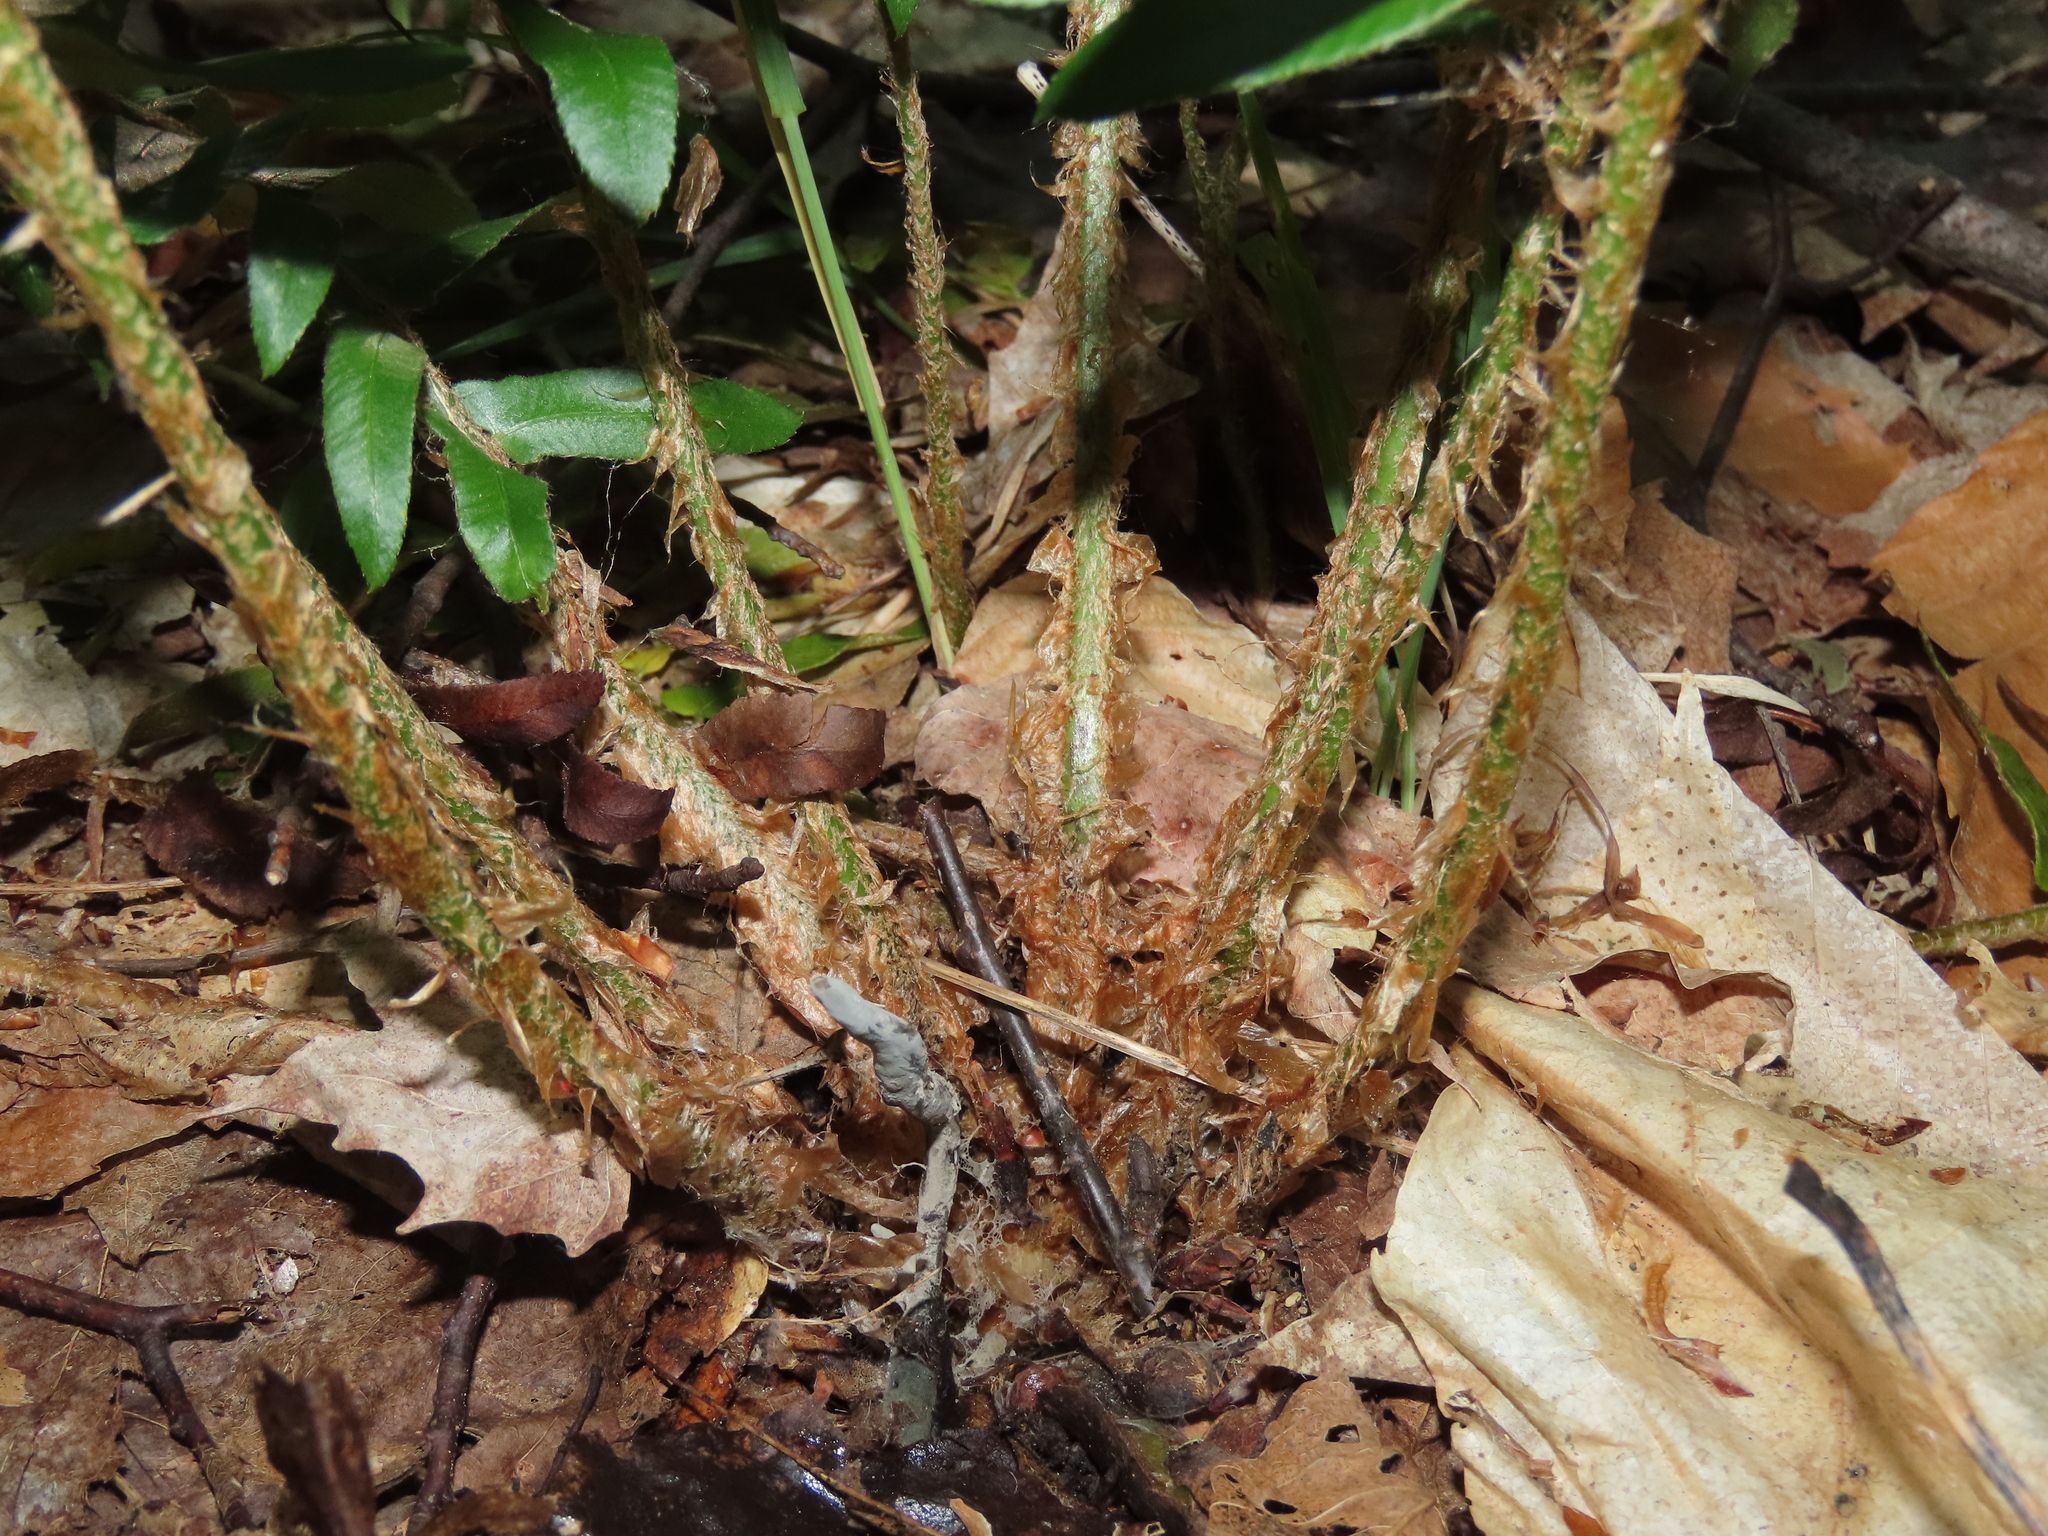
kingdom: Plantae
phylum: Tracheophyta
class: Polypodiopsida
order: Polypodiales
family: Dryopteridaceae
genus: Polystichum
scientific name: Polystichum acrostichoides
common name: Christmas fern
